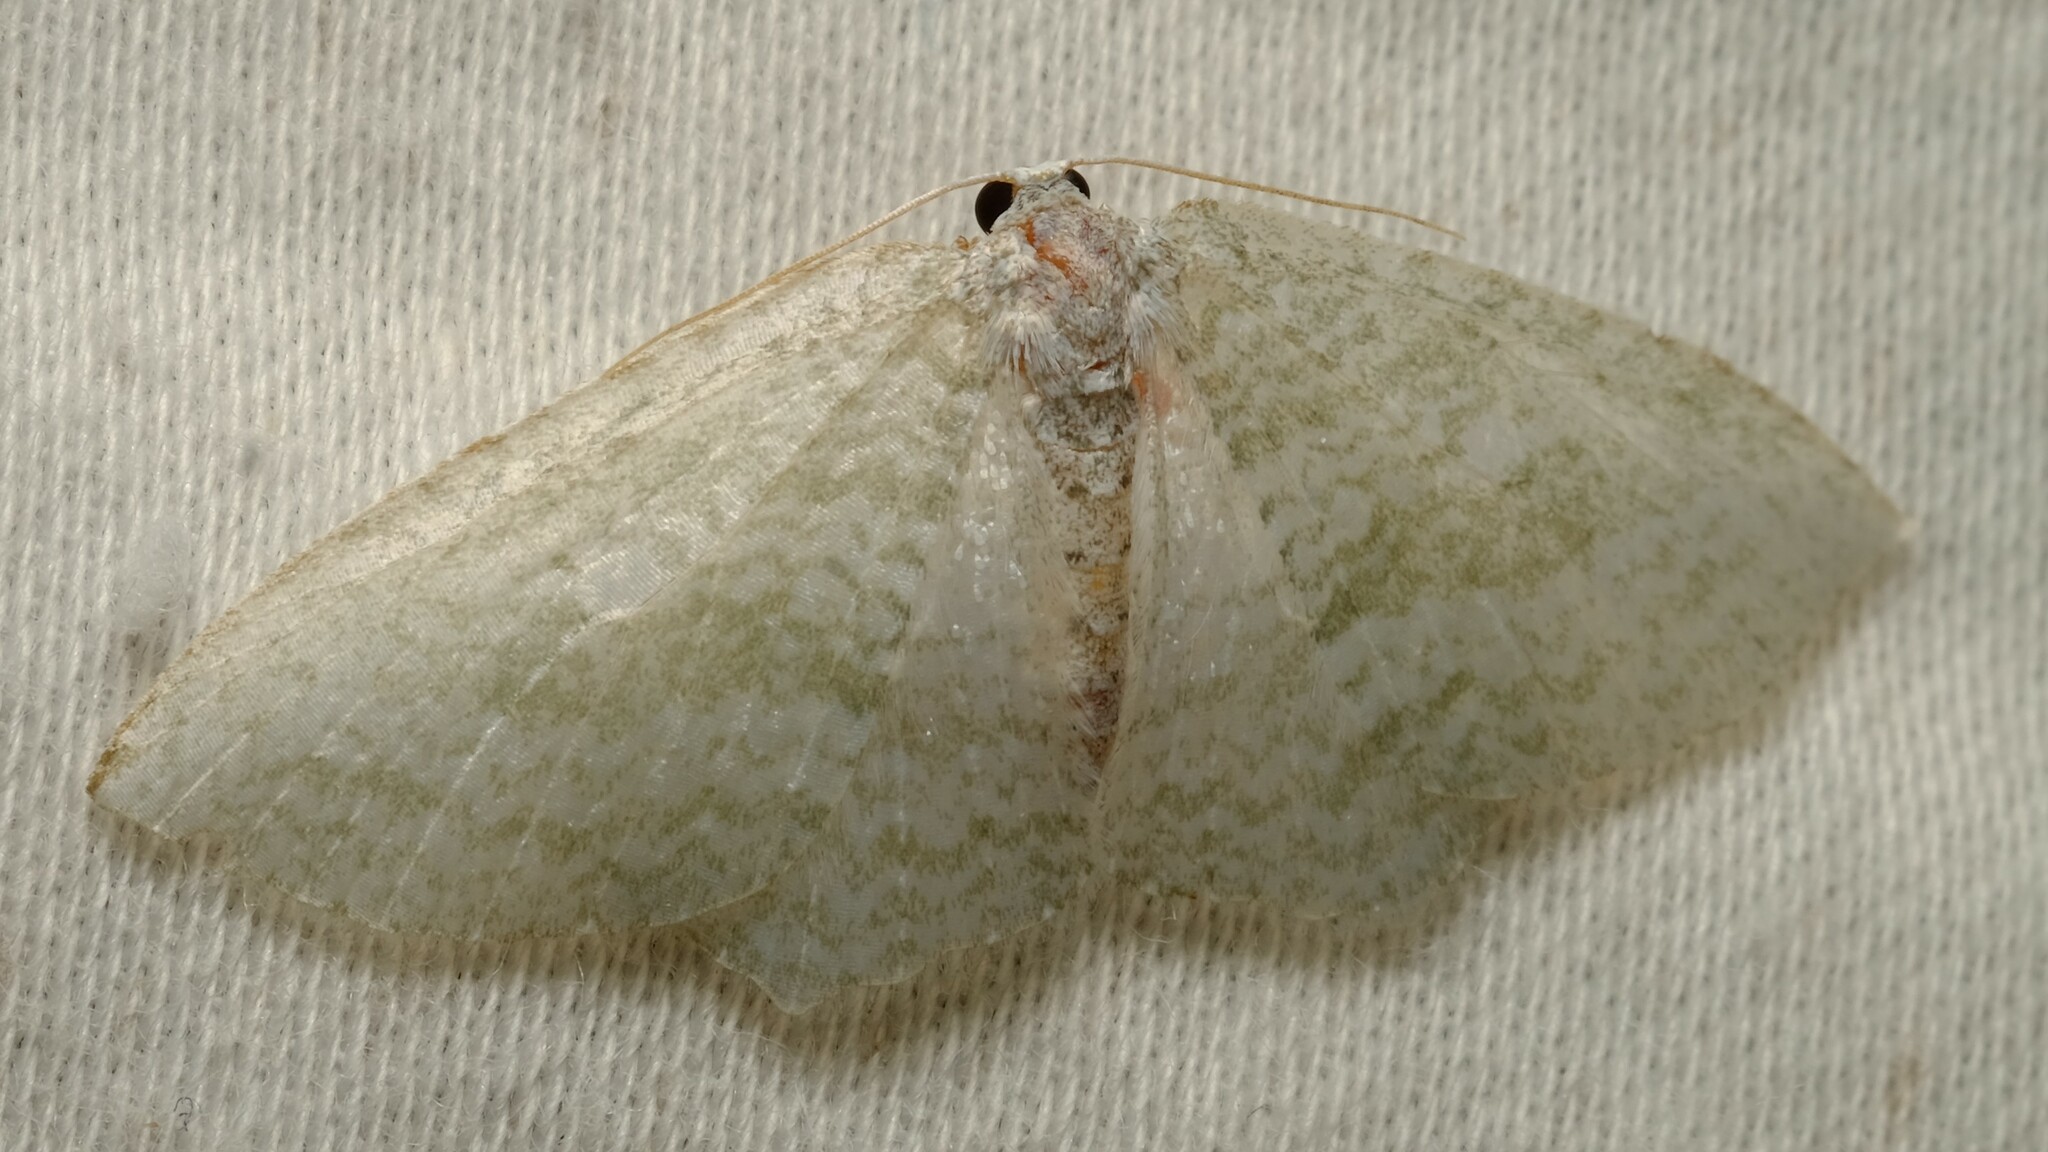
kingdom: Animalia
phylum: Arthropoda
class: Insecta
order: Lepidoptera
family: Geometridae
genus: Poecilasthena
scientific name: Poecilasthena thalassias
